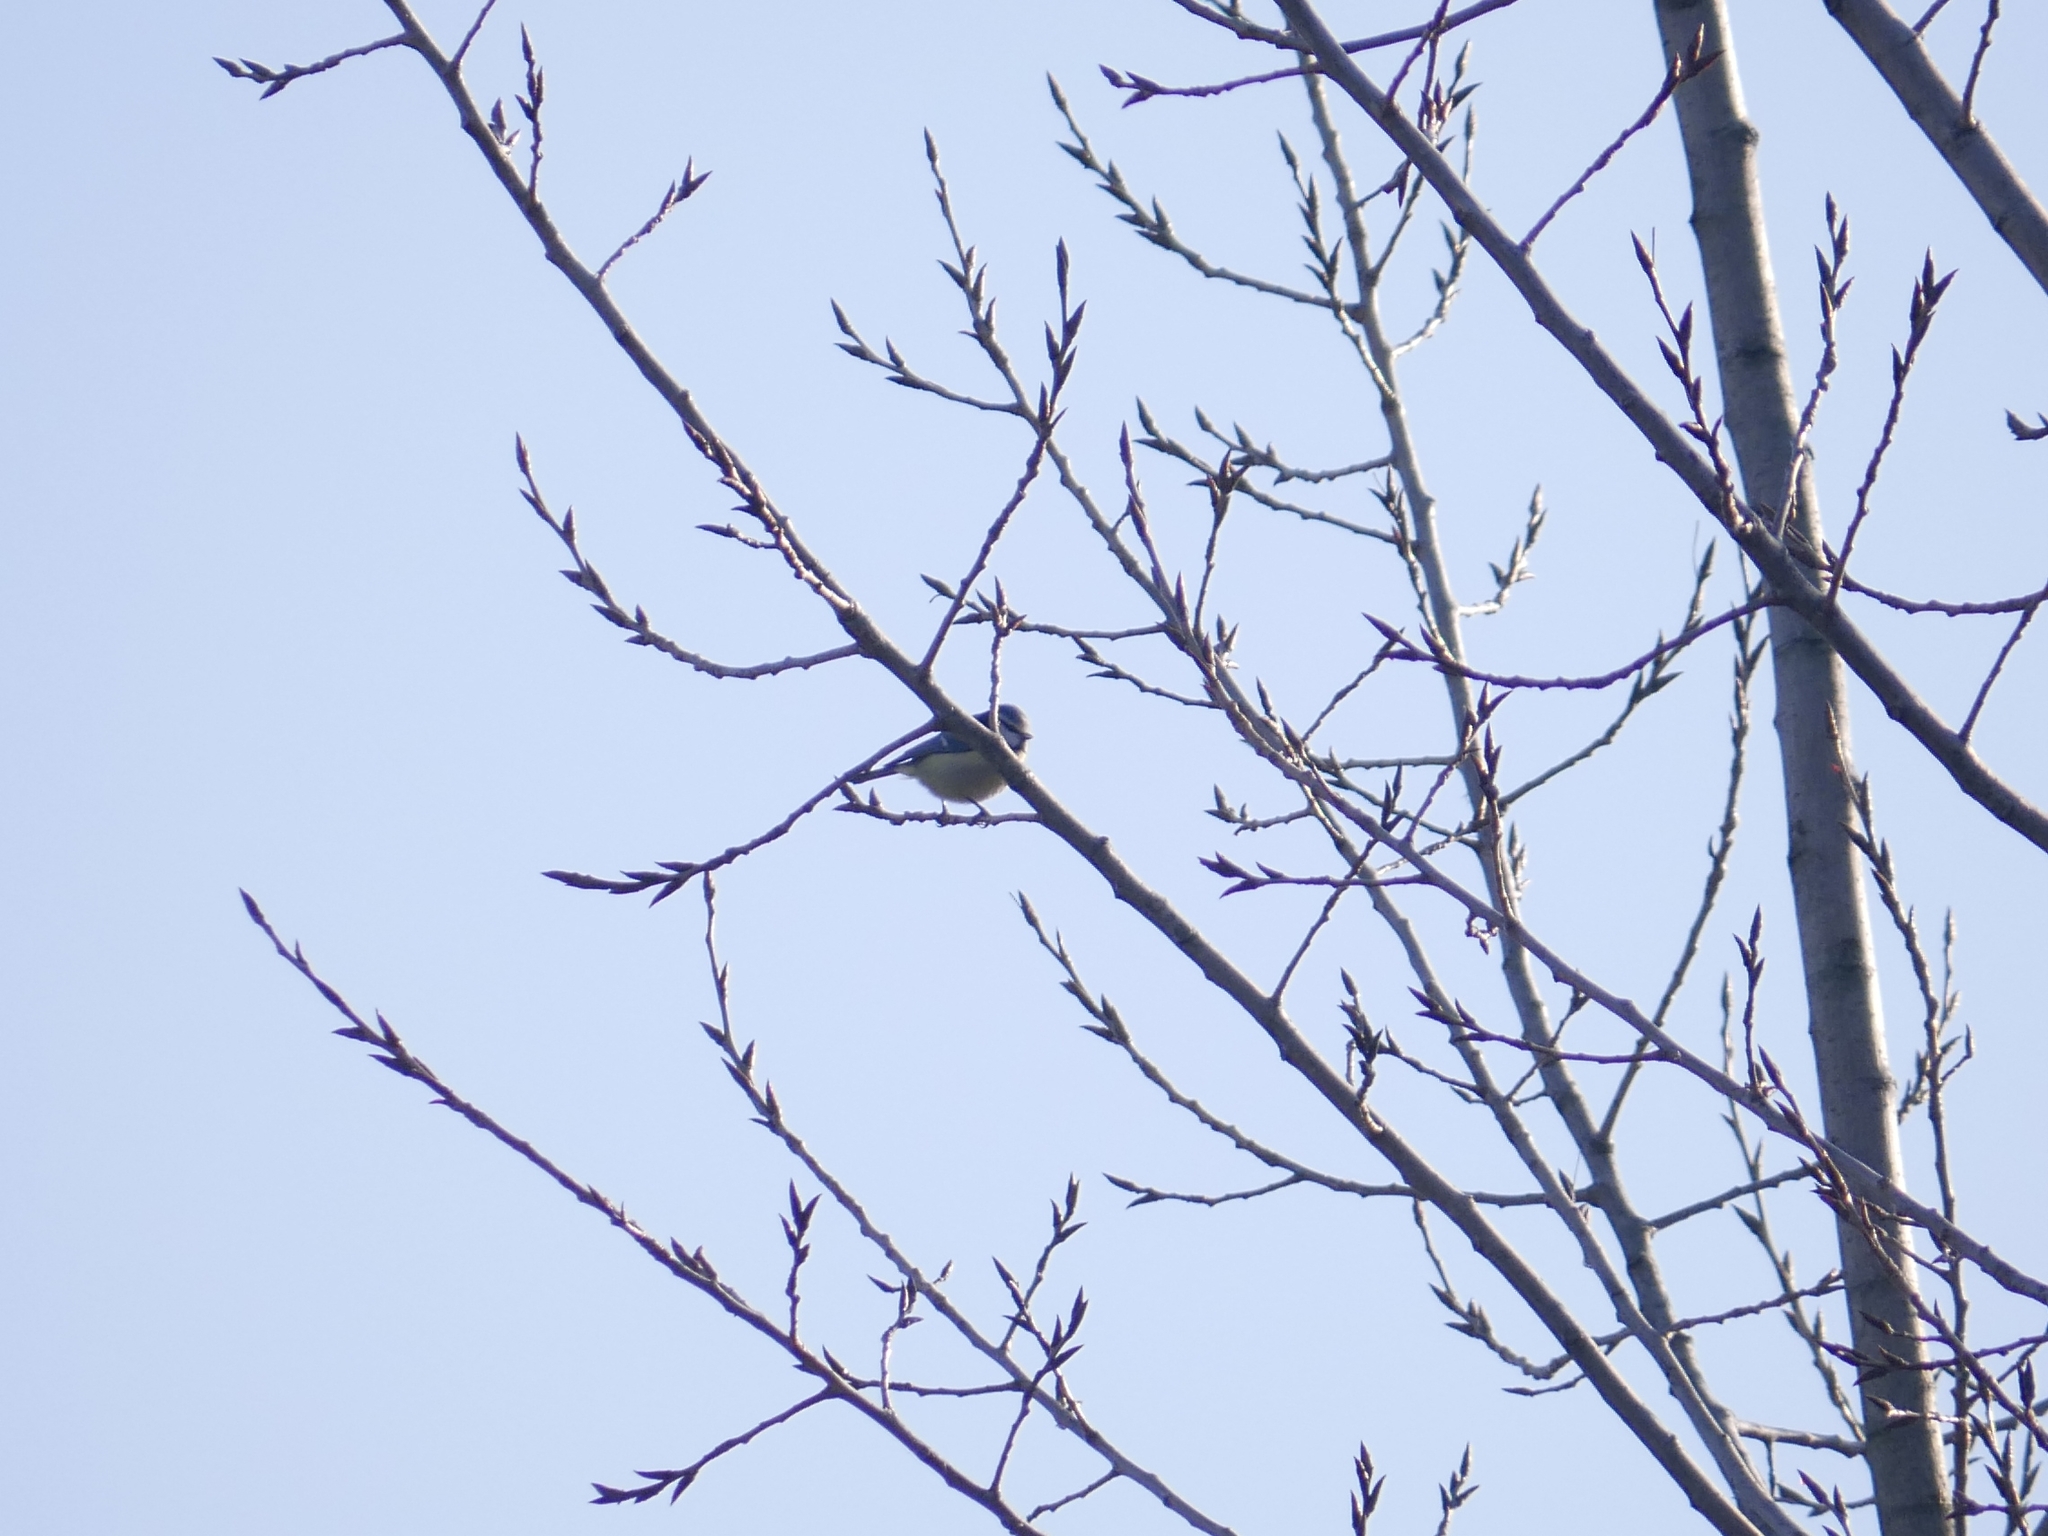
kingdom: Animalia
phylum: Chordata
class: Aves
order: Passeriformes
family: Paridae
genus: Cyanistes
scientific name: Cyanistes caeruleus
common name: Eurasian blue tit
